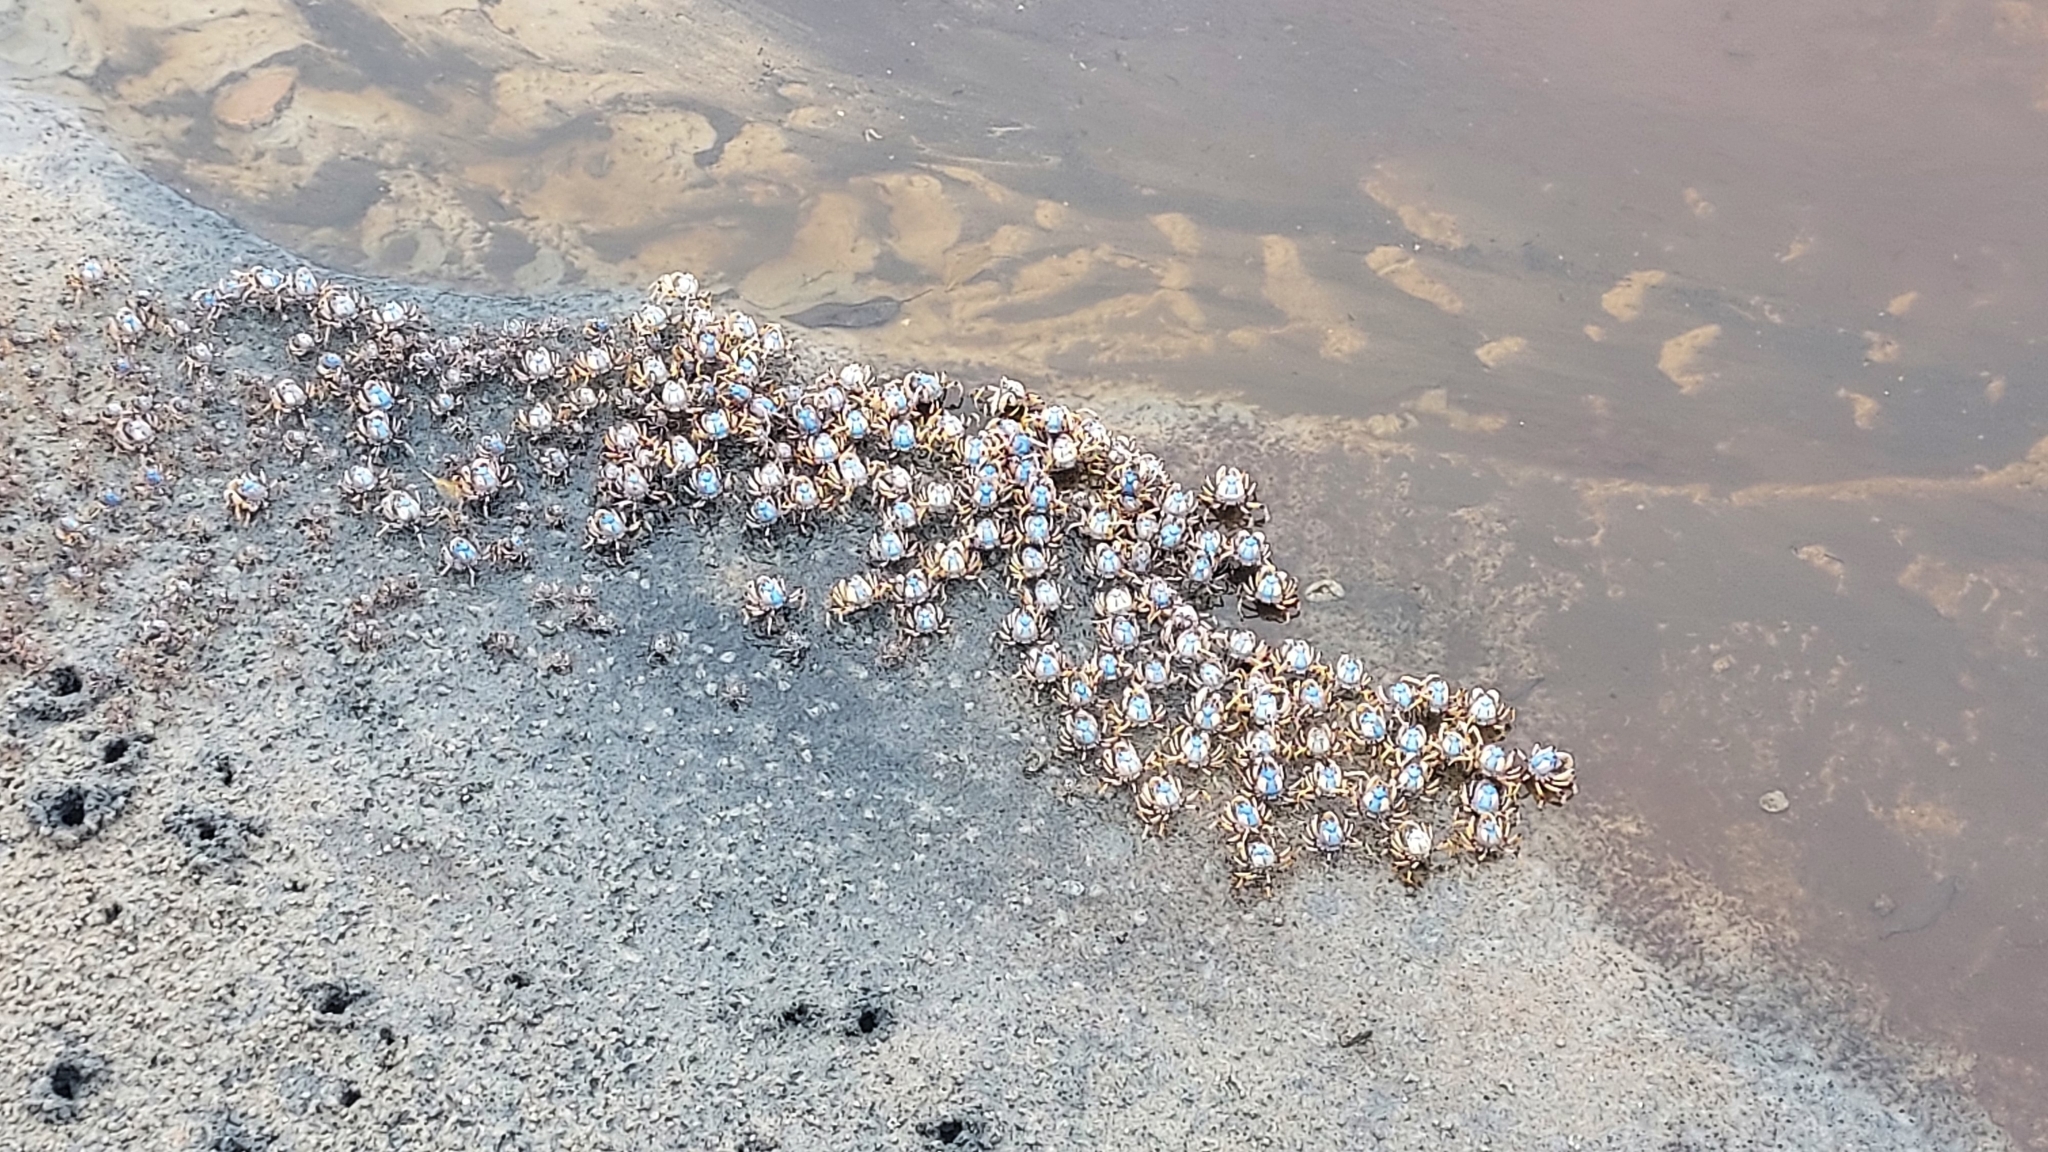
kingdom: Animalia
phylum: Arthropoda
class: Malacostraca
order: Decapoda
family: Mictyridae
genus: Mictyris
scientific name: Mictyris longicarpus
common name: Light-blue soldier crab
